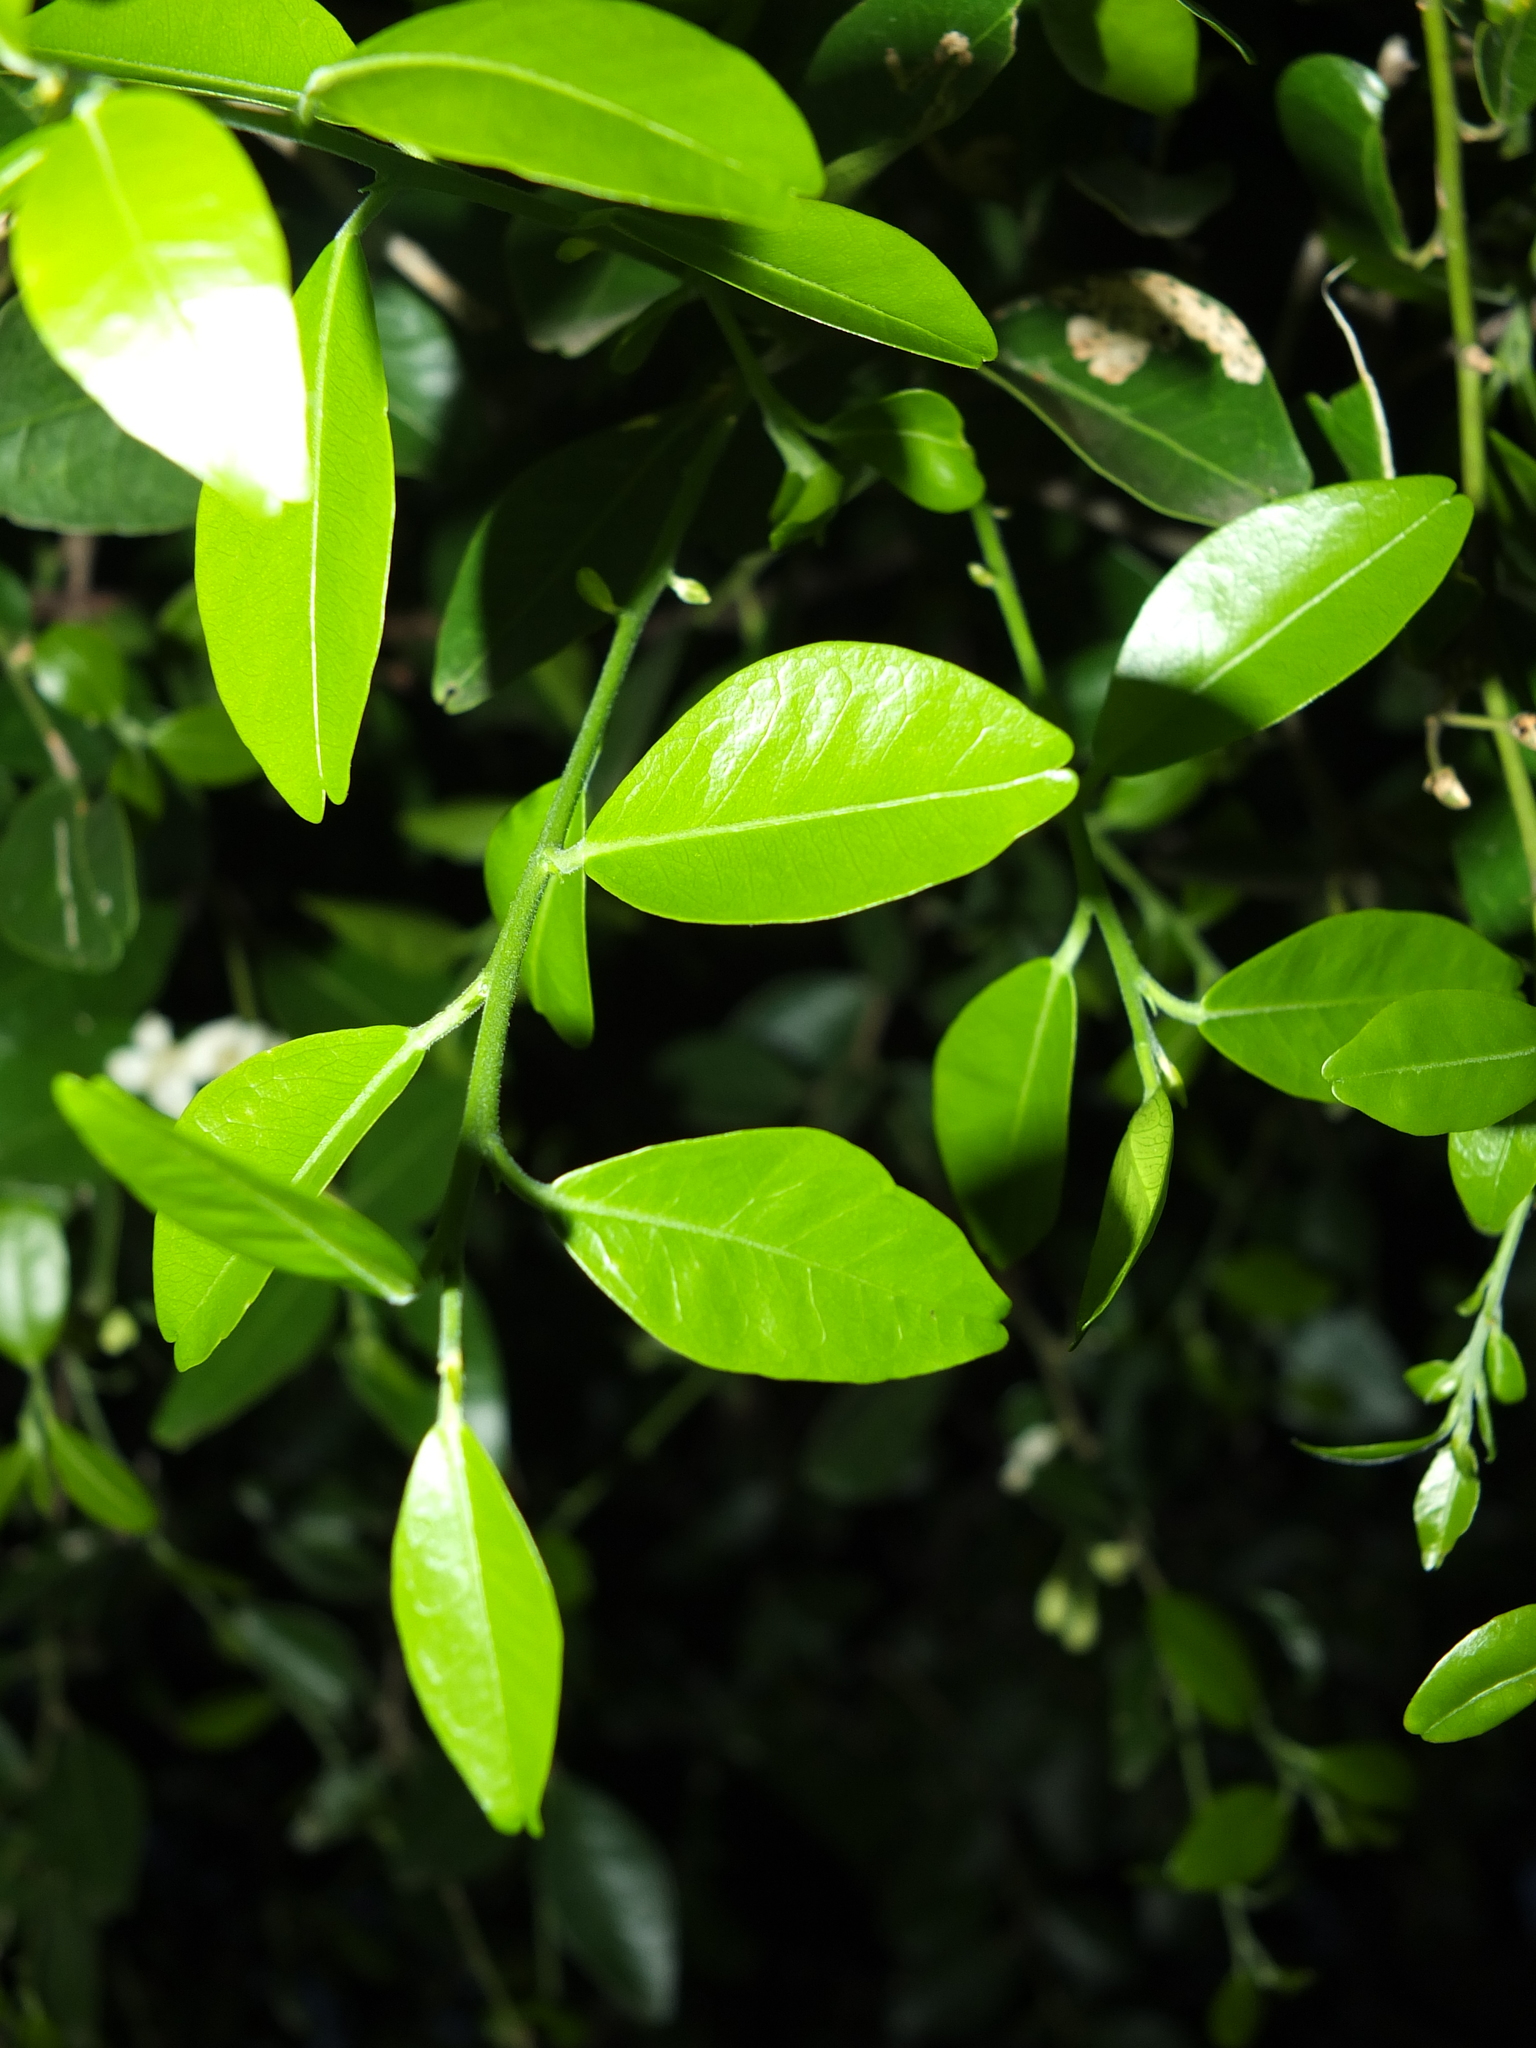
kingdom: Plantae
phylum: Tracheophyta
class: Magnoliopsida
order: Sapindales
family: Rutaceae
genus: Atalantia
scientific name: Atalantia monophylla
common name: Indian-atalantia
